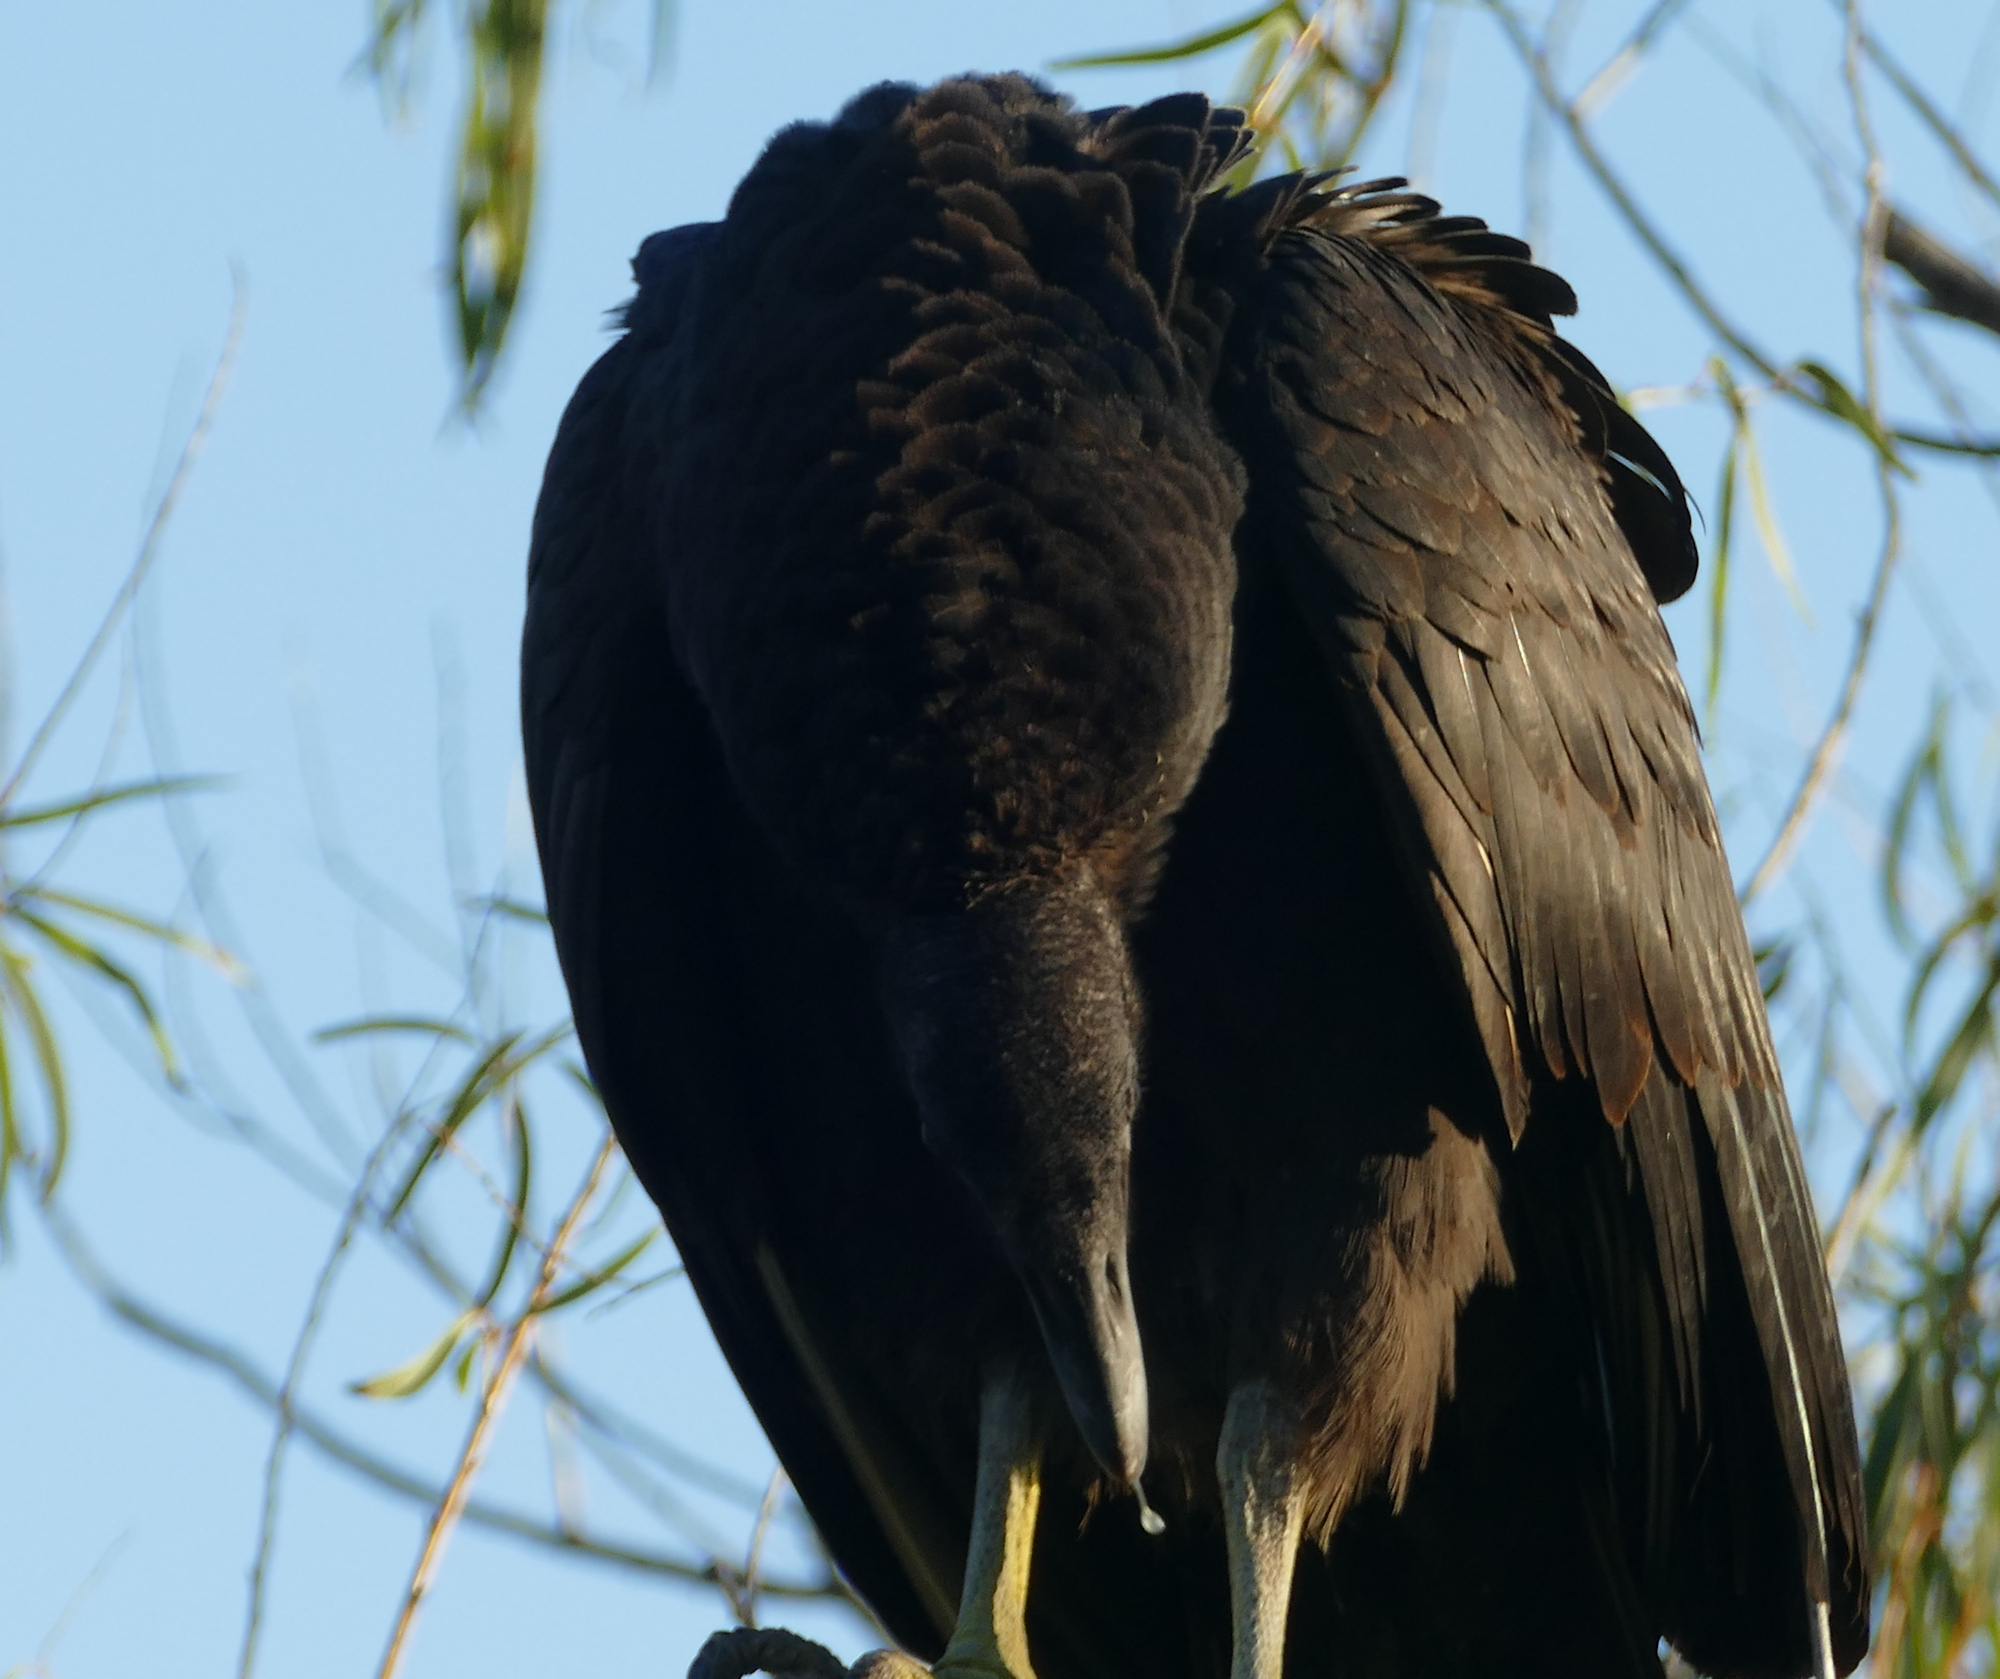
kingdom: Animalia
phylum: Chordata
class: Aves
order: Accipitriformes
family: Cathartidae
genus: Coragyps
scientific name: Coragyps atratus
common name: Black vulture
